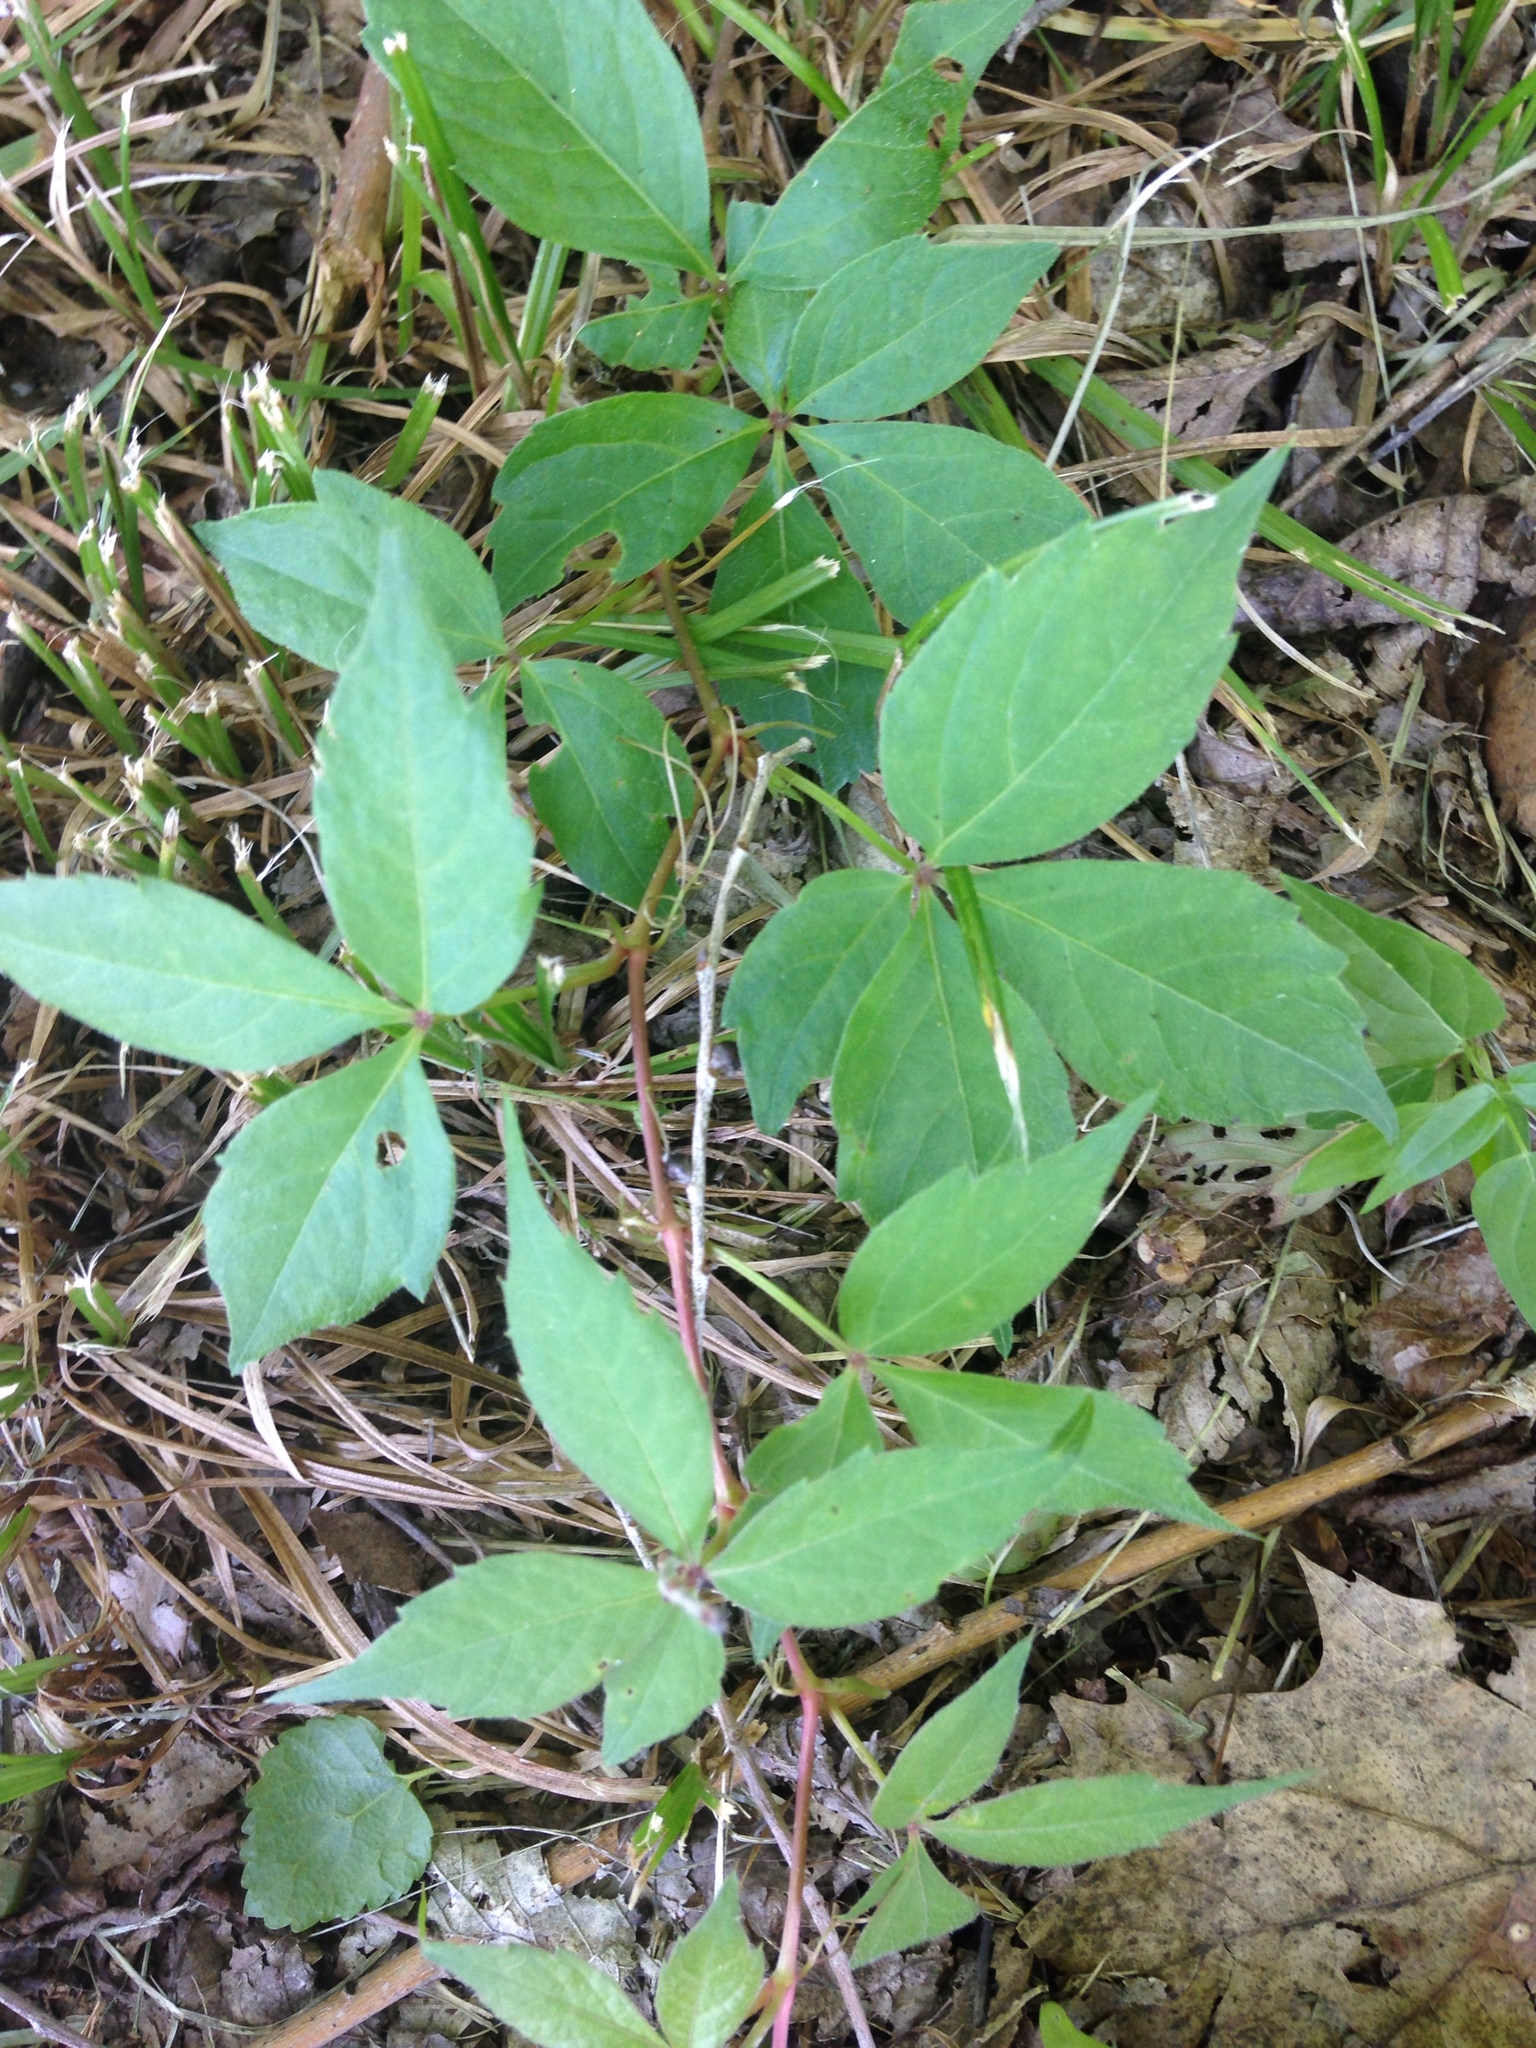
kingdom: Plantae
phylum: Tracheophyta
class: Magnoliopsida
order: Sapindales
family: Anacardiaceae
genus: Toxicodendron
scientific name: Toxicodendron radicans
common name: Poison ivy
